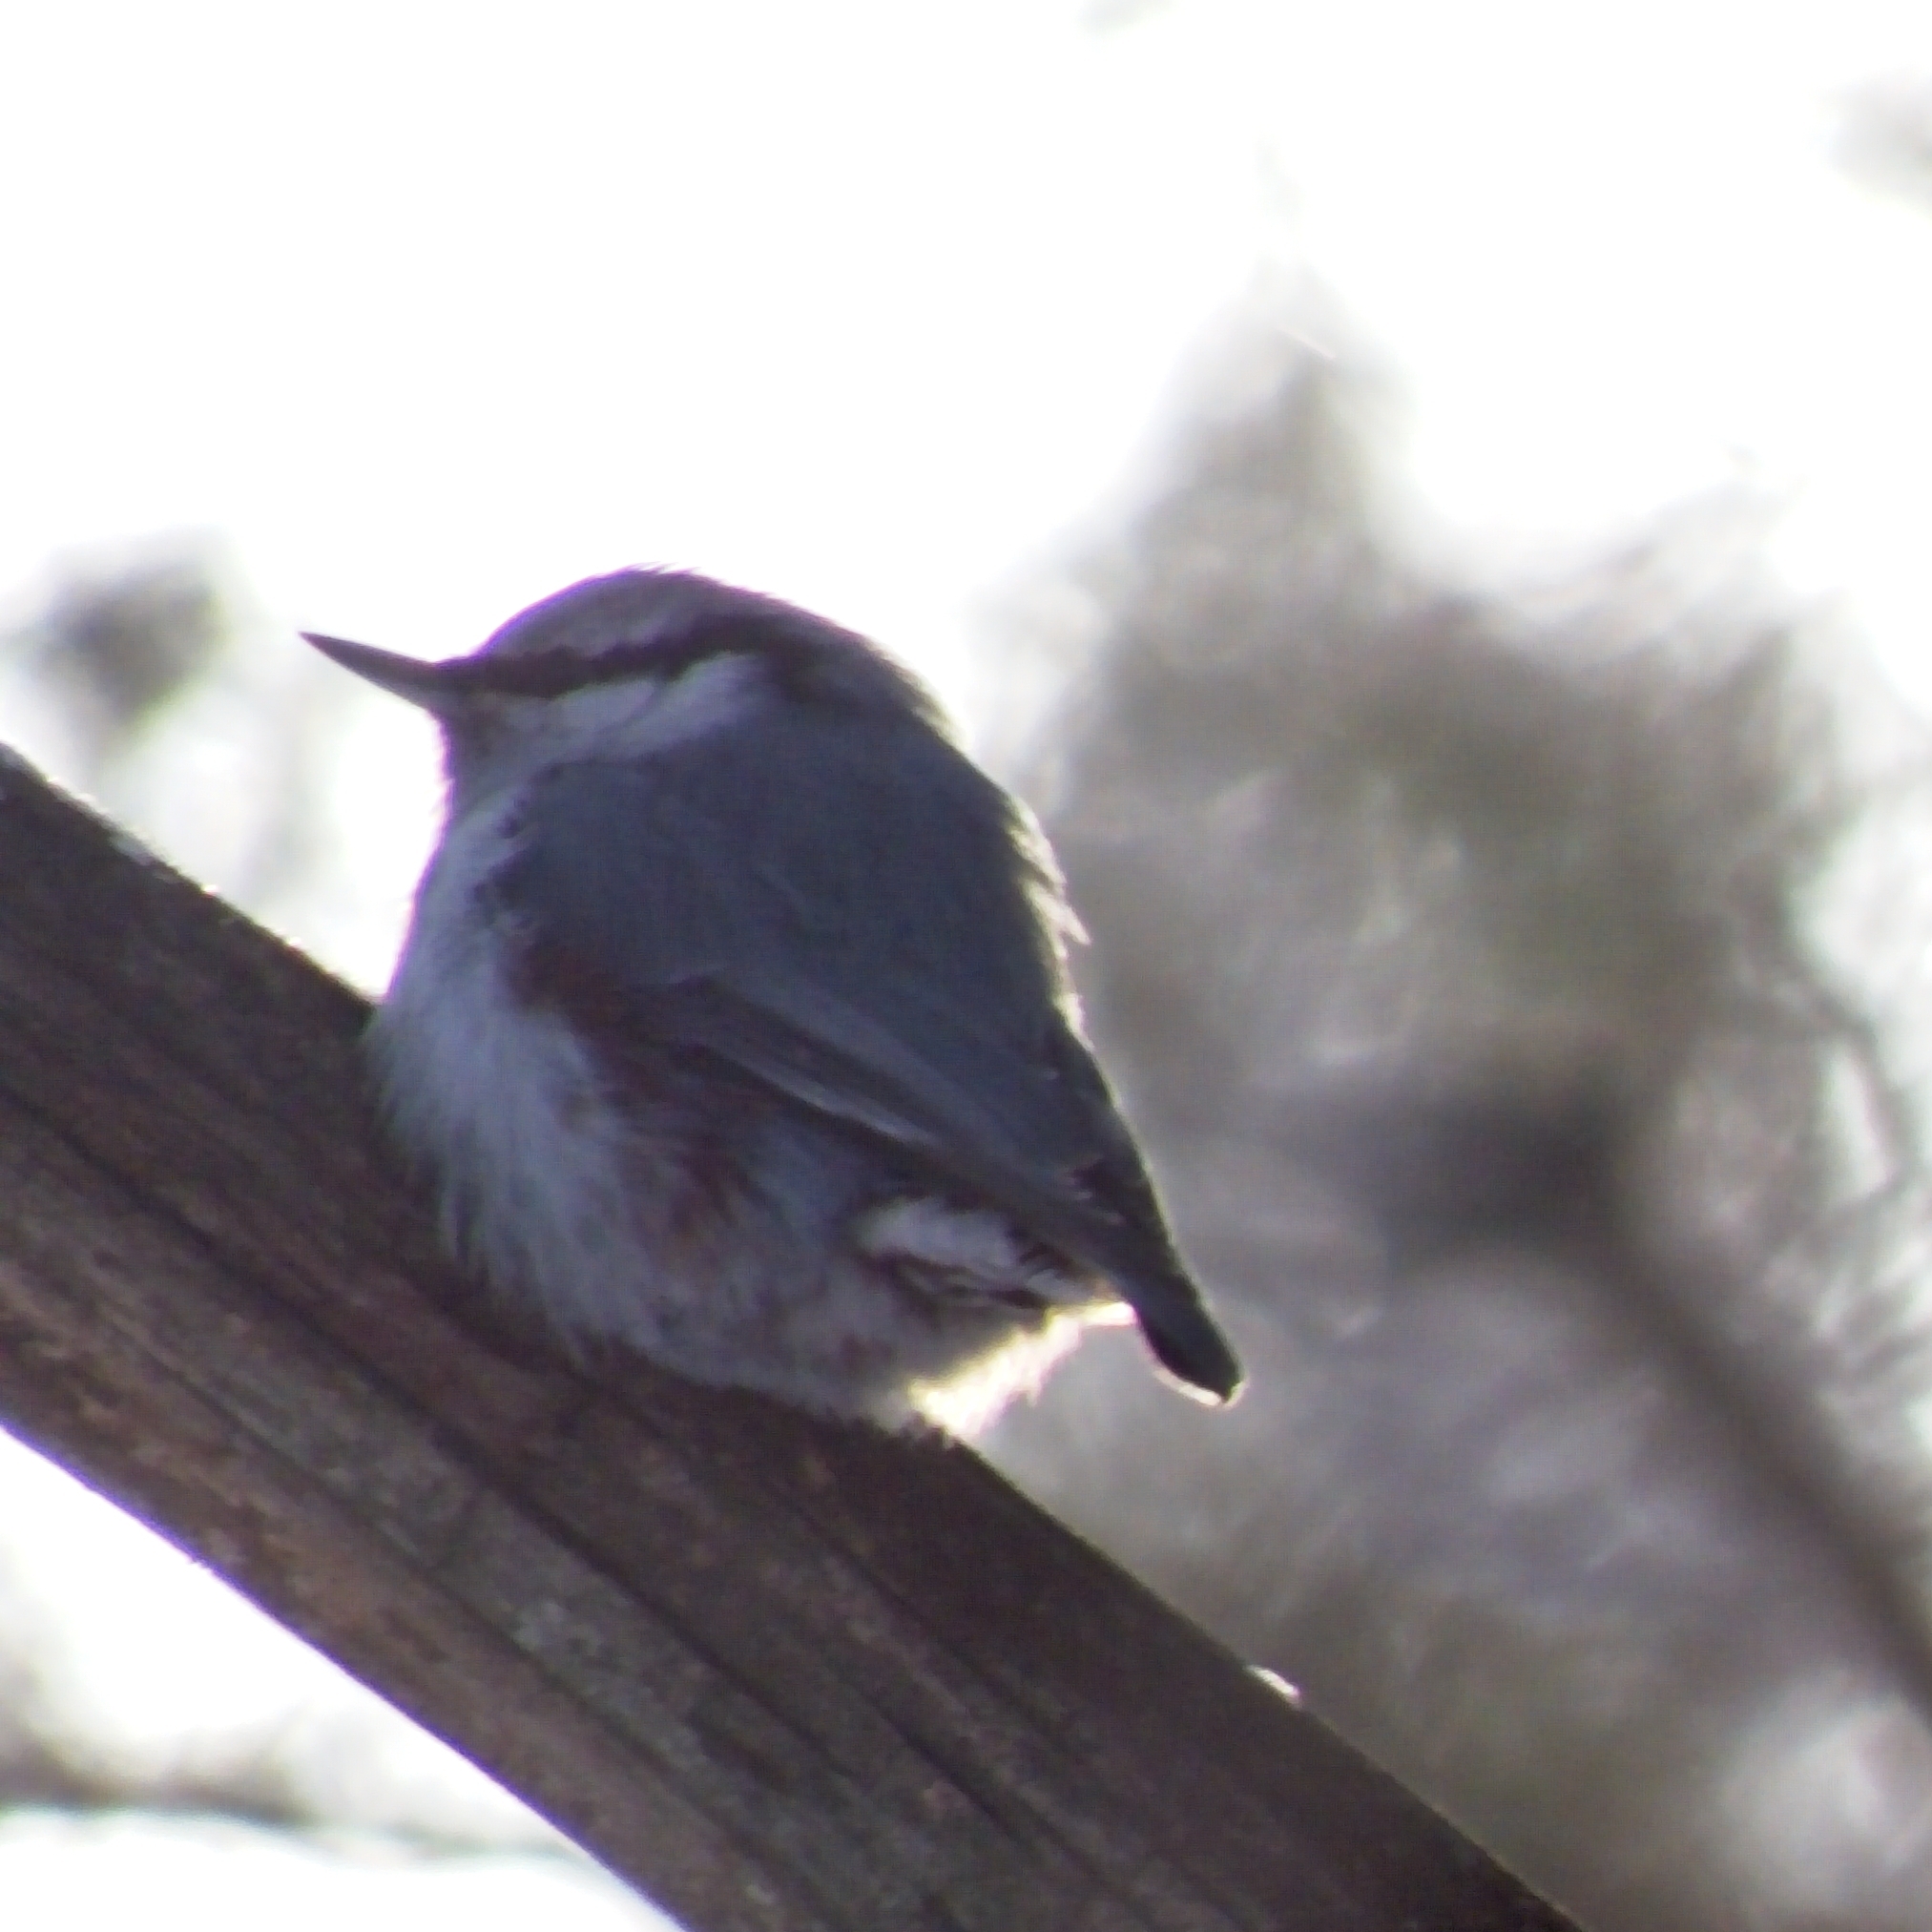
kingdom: Animalia
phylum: Chordata
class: Aves
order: Passeriformes
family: Sittidae
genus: Sitta
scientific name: Sitta europaea
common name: Eurasian nuthatch
